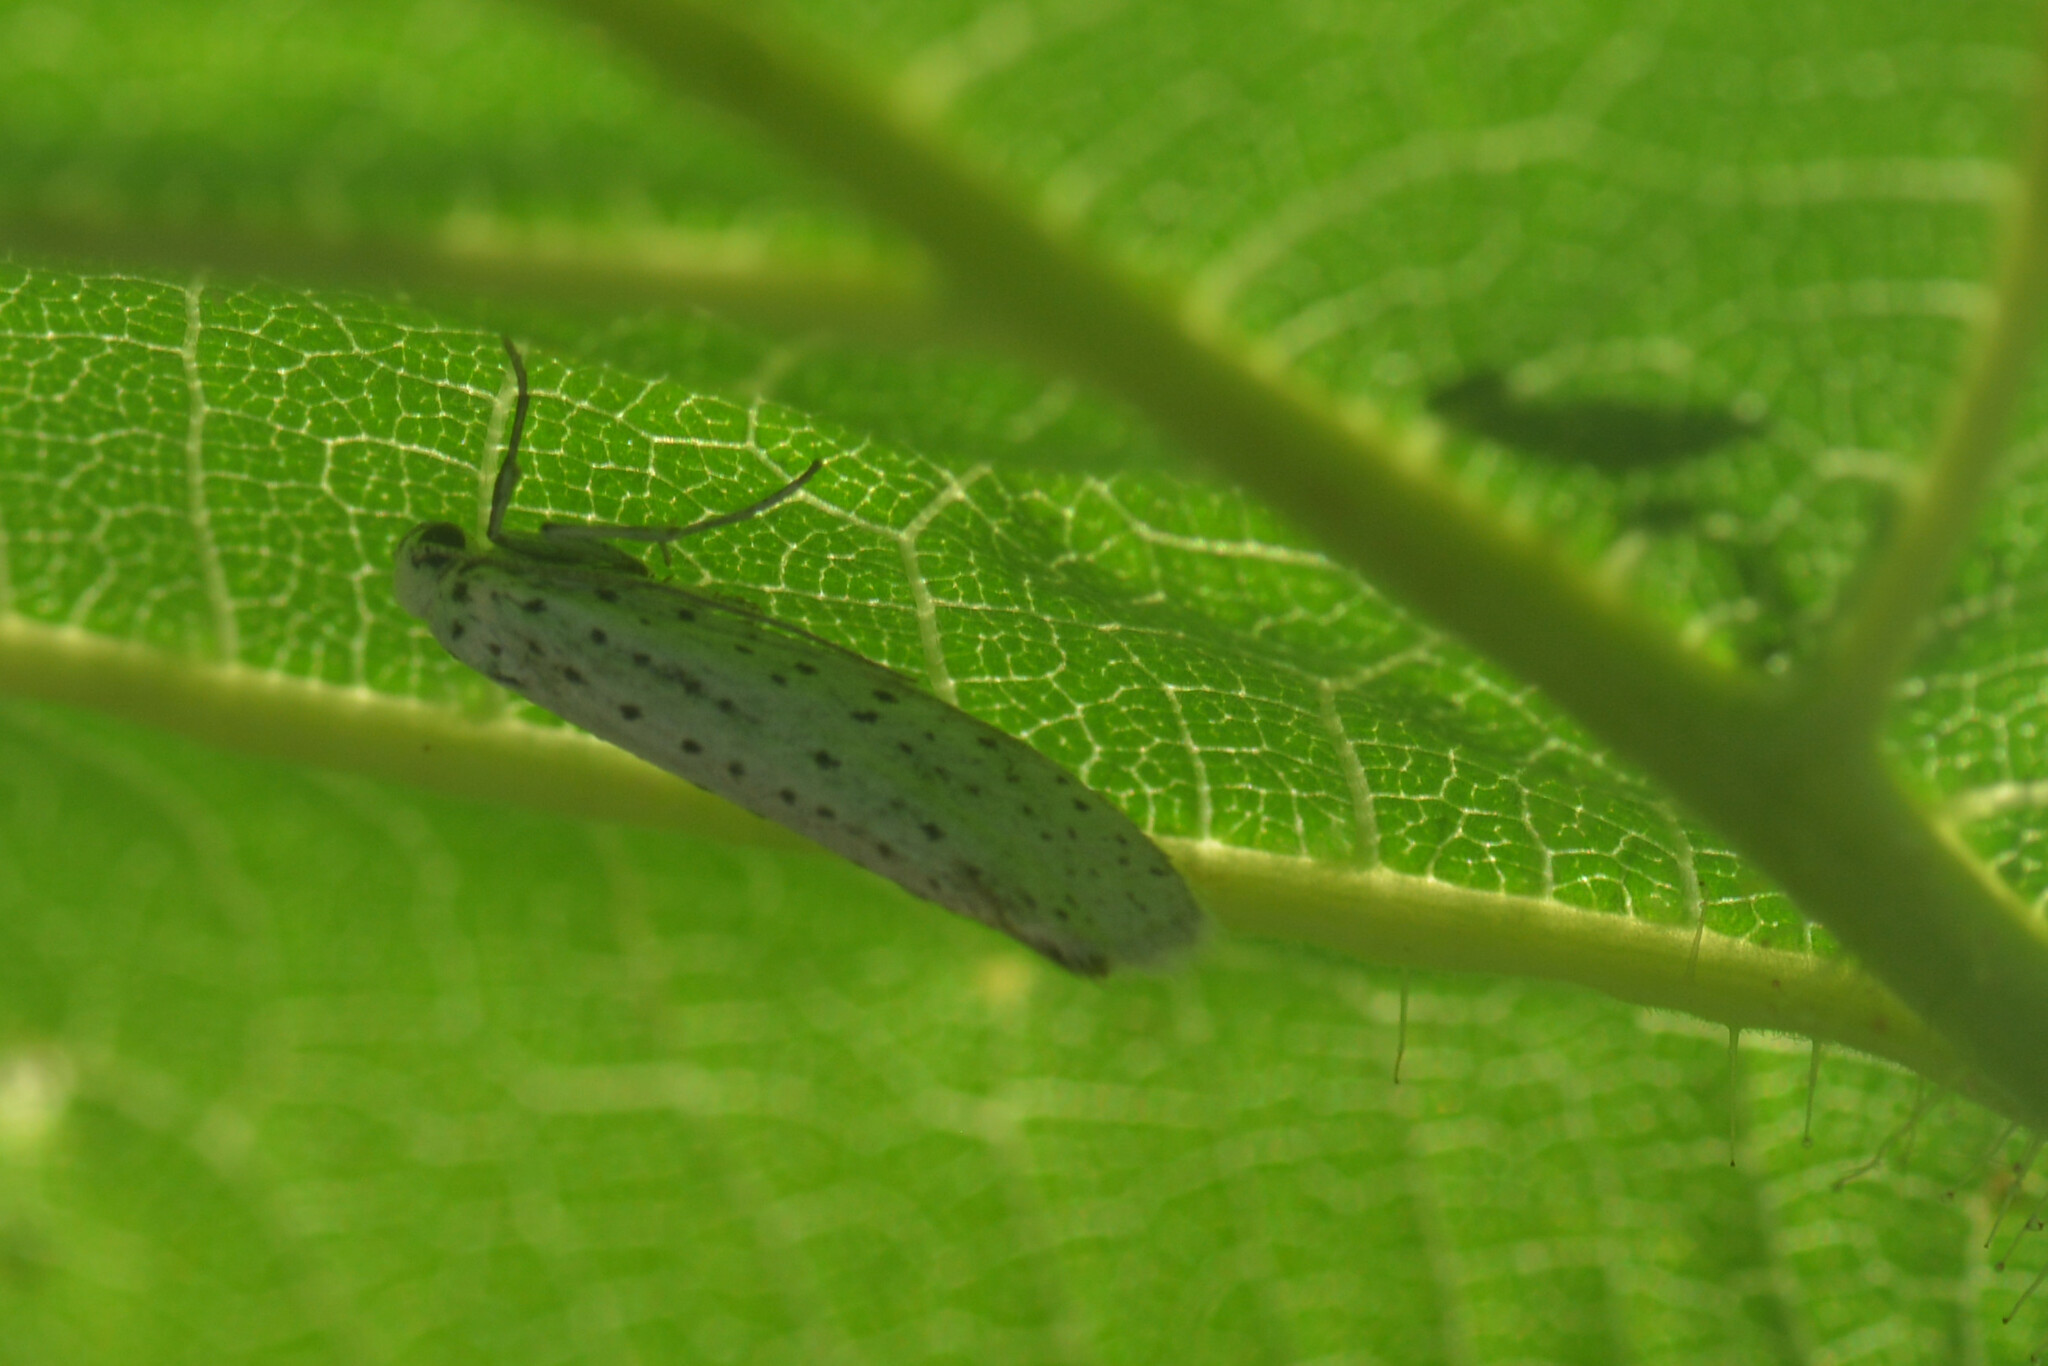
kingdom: Animalia
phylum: Arthropoda
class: Insecta
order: Lepidoptera
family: Yponomeutidae
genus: Yponomeuta
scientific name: Yponomeuta evonymella
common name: Bird-cherry ermine
